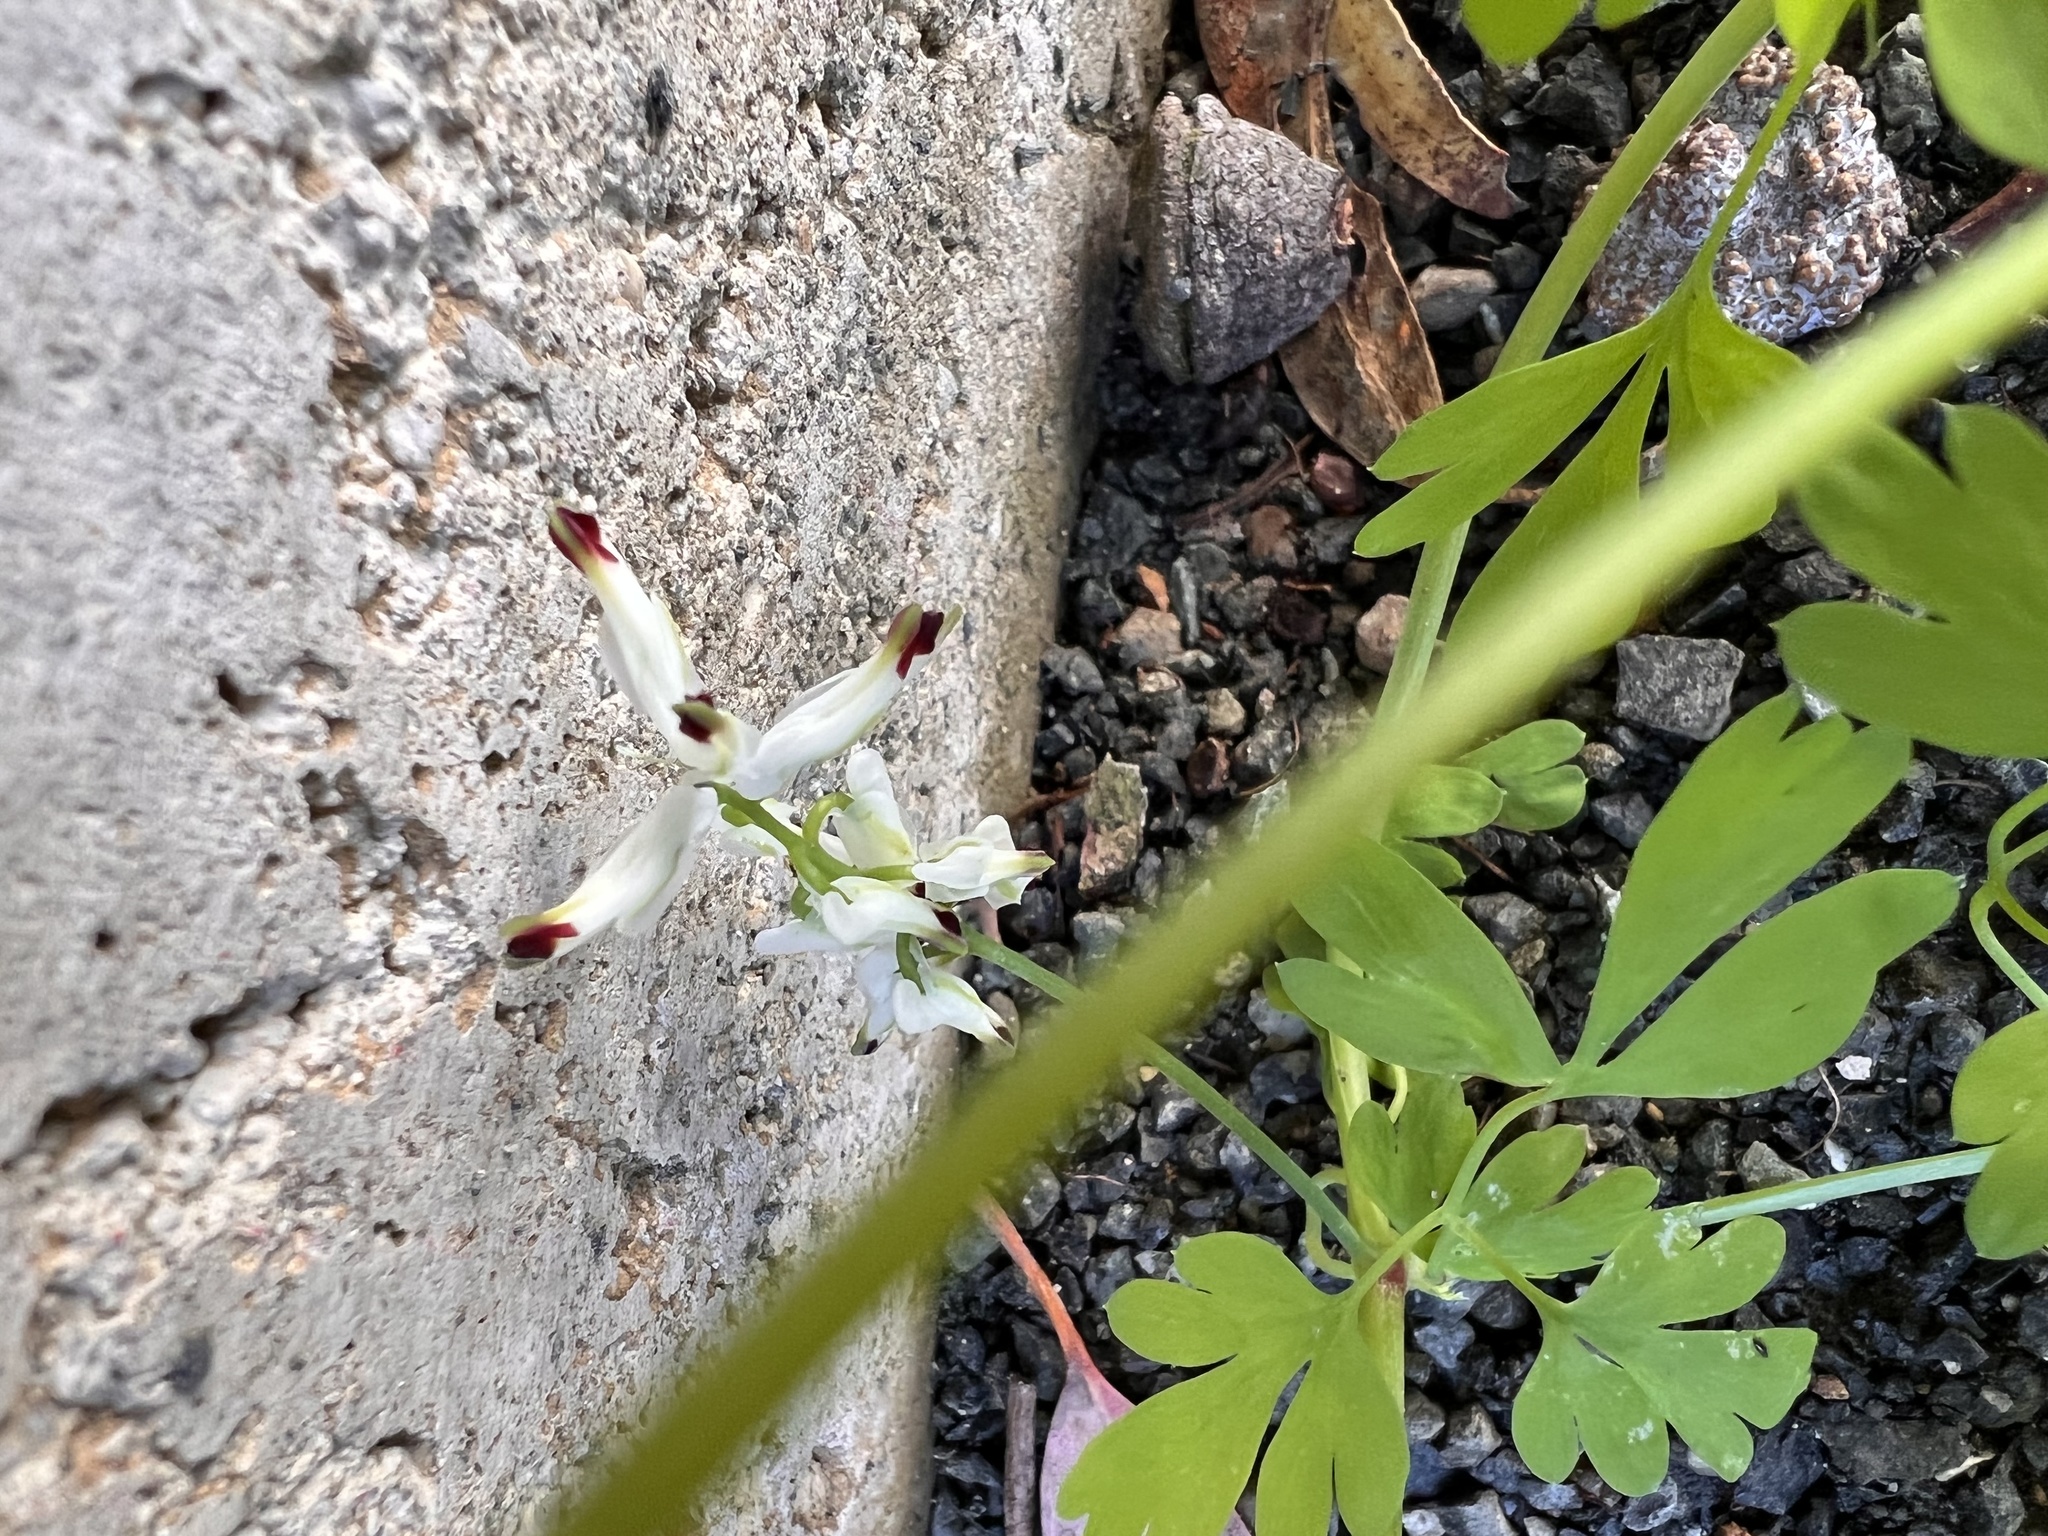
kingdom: Plantae
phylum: Tracheophyta
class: Magnoliopsida
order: Ranunculales
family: Papaveraceae
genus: Fumaria
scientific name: Fumaria capreolata
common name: White ramping-fumitory
